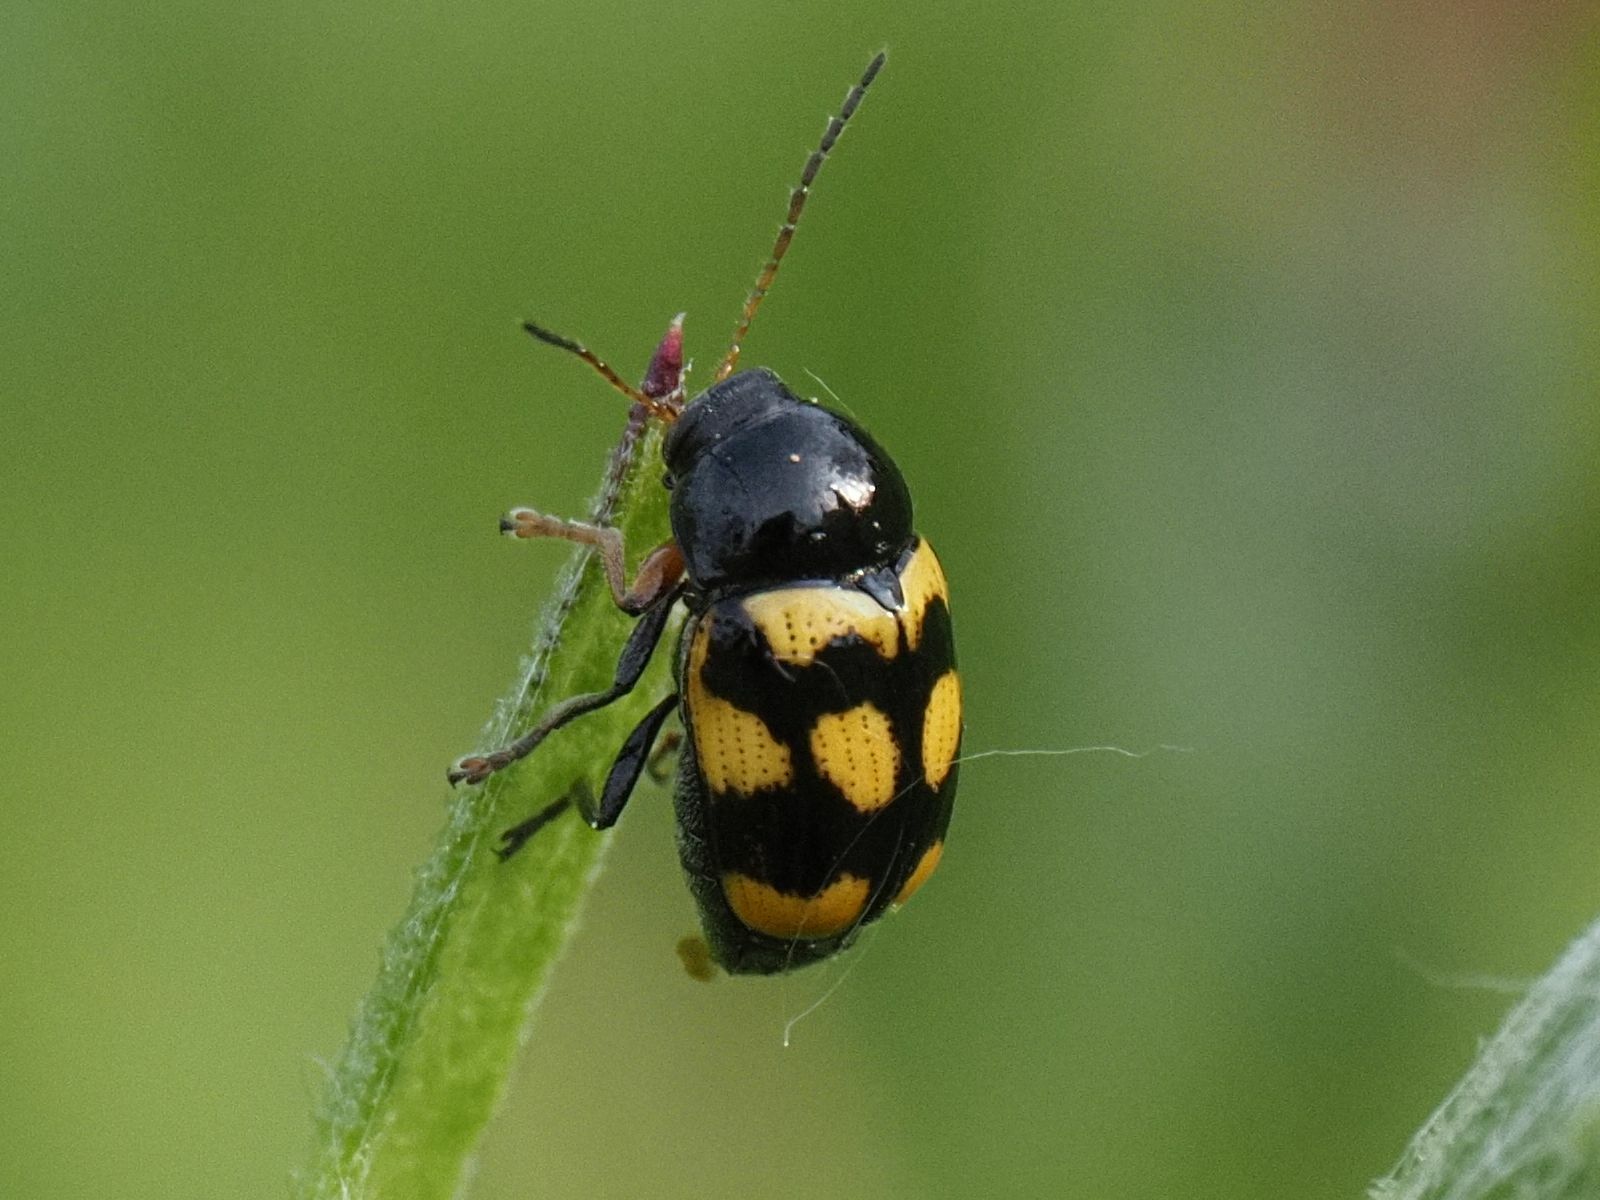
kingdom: Animalia
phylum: Arthropoda
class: Insecta
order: Coleoptera
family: Chrysomelidae
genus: Cryptocephalus
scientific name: Cryptocephalus anticus
